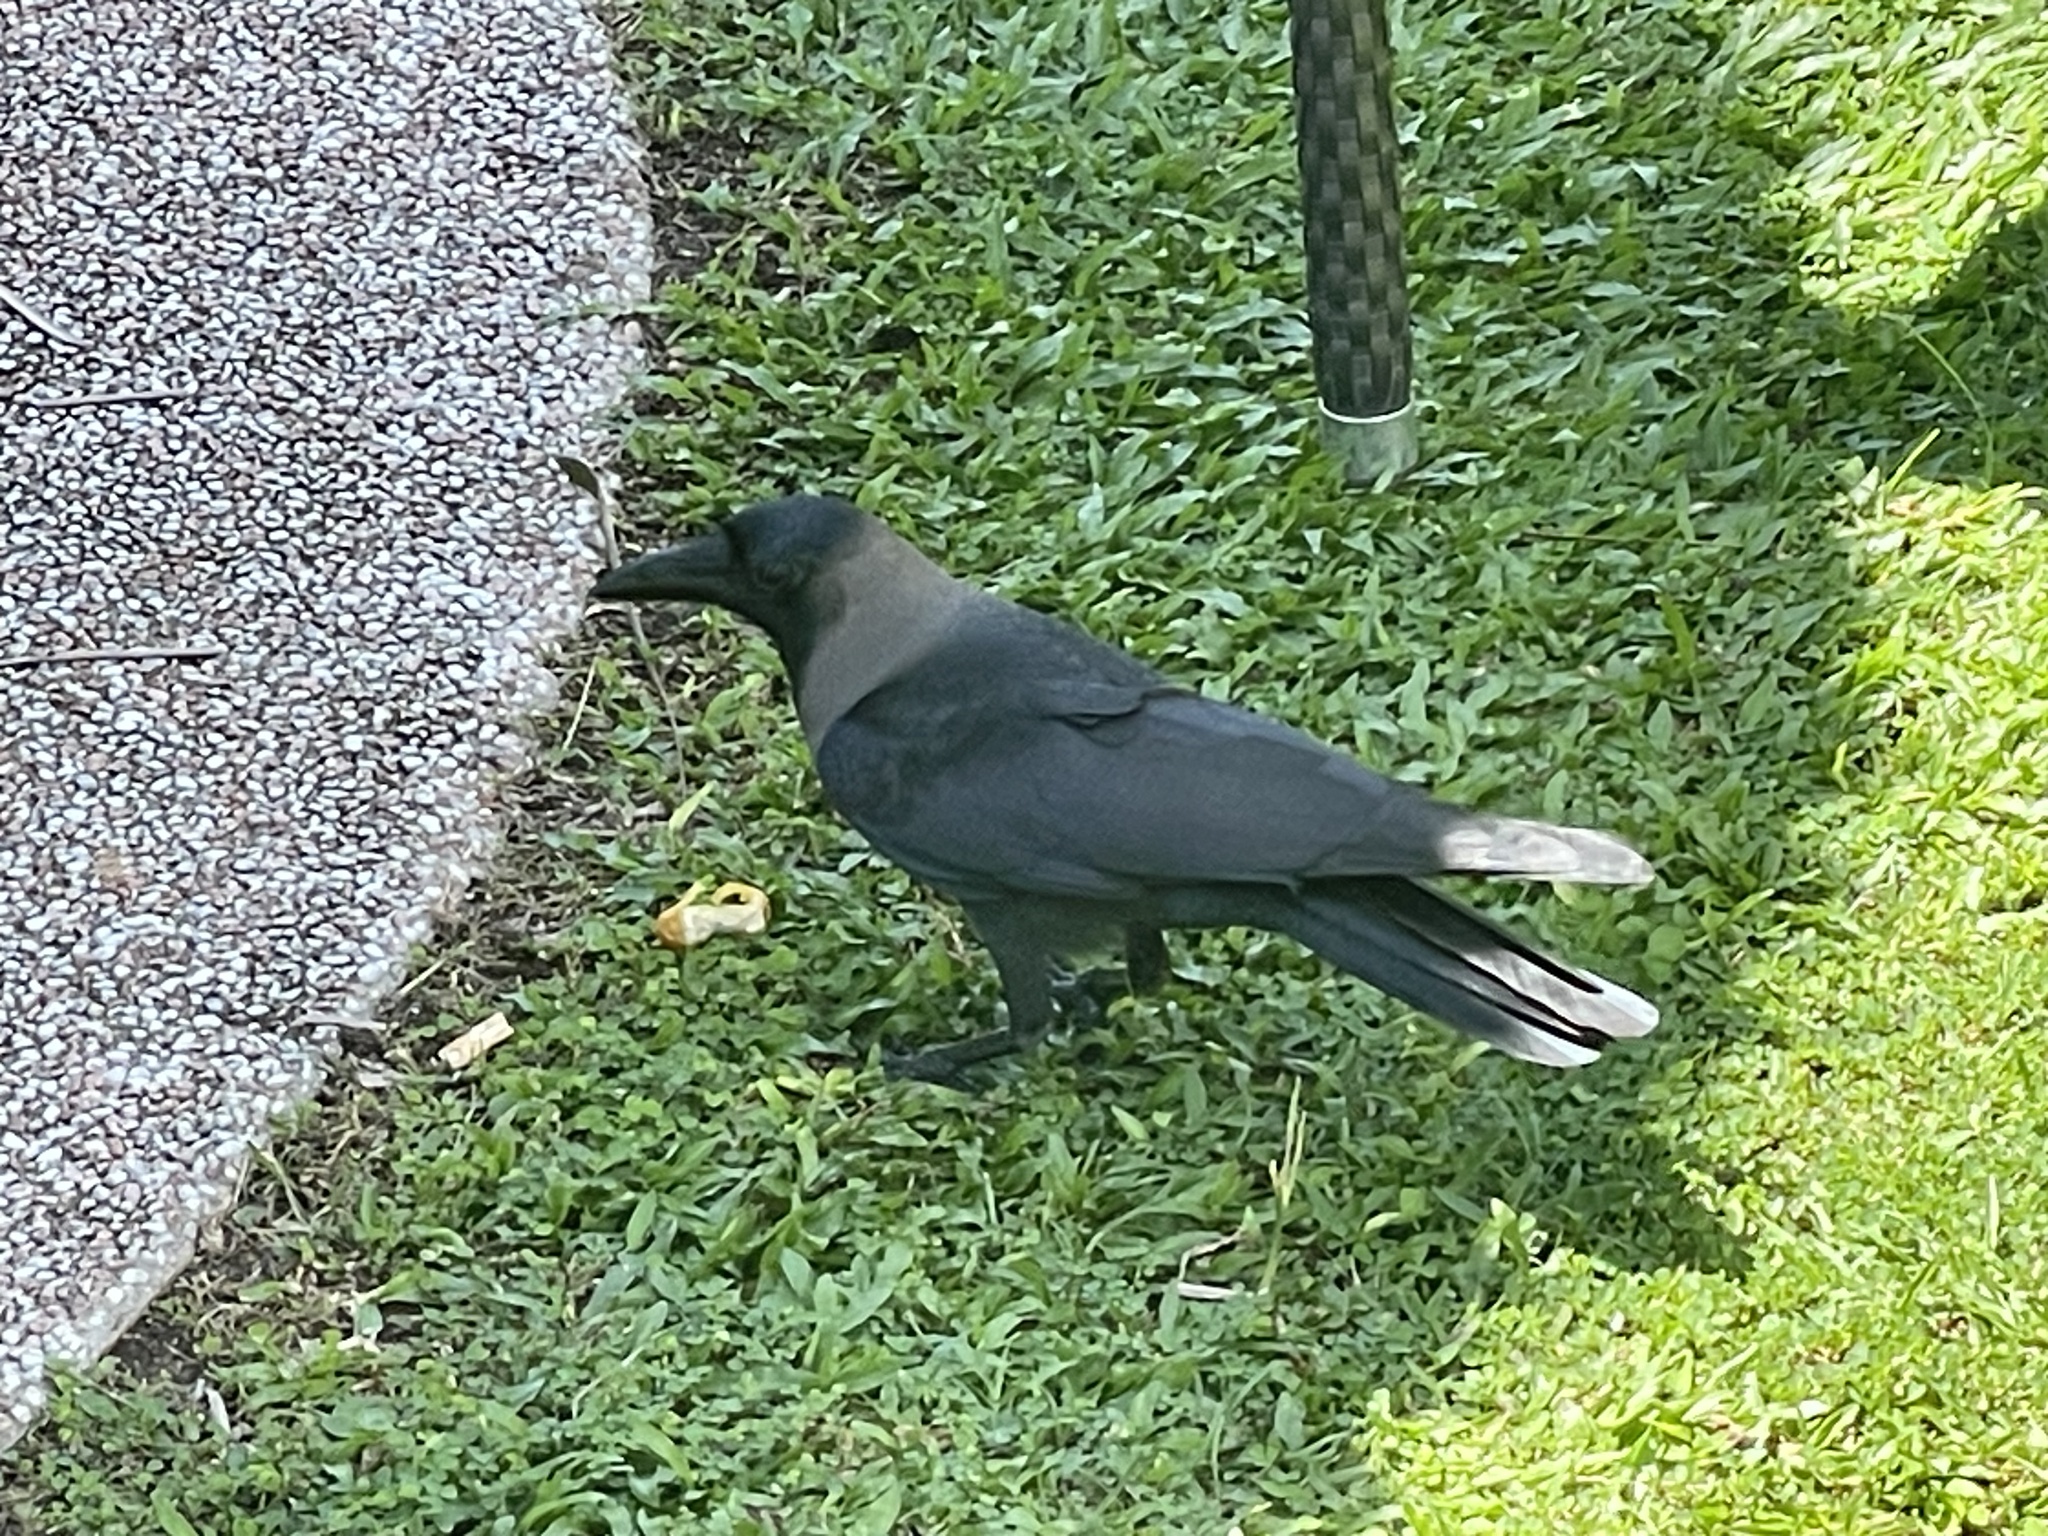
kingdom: Animalia
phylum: Chordata
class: Aves
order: Passeriformes
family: Corvidae
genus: Corvus
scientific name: Corvus splendens
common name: House crow
